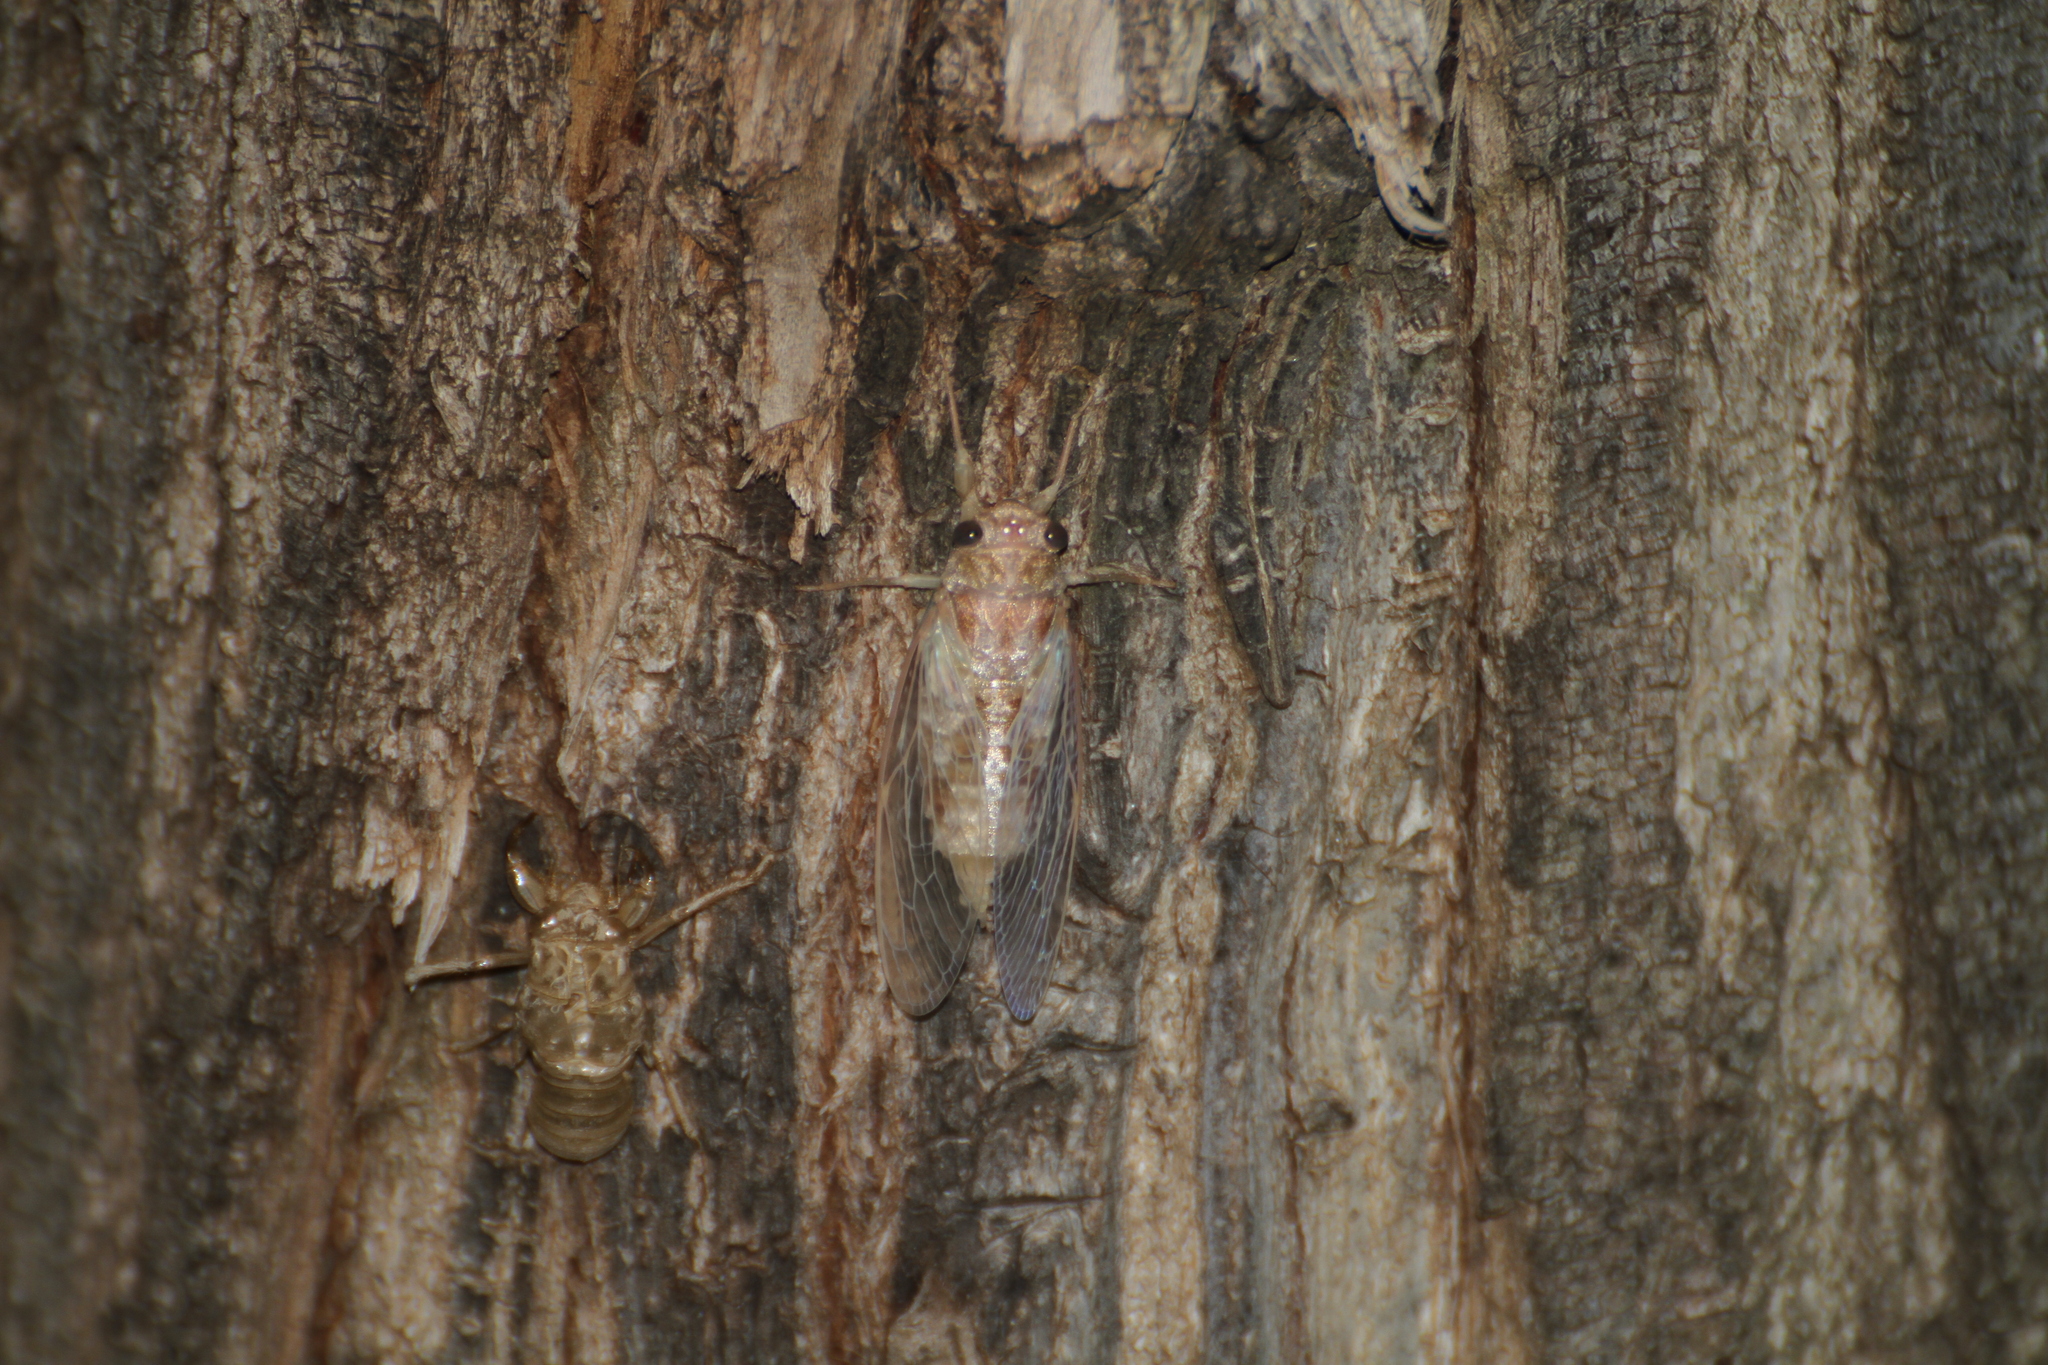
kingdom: Animalia
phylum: Arthropoda
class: Insecta
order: Hemiptera
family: Cicadidae
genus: Cicada
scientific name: Cicada orni
